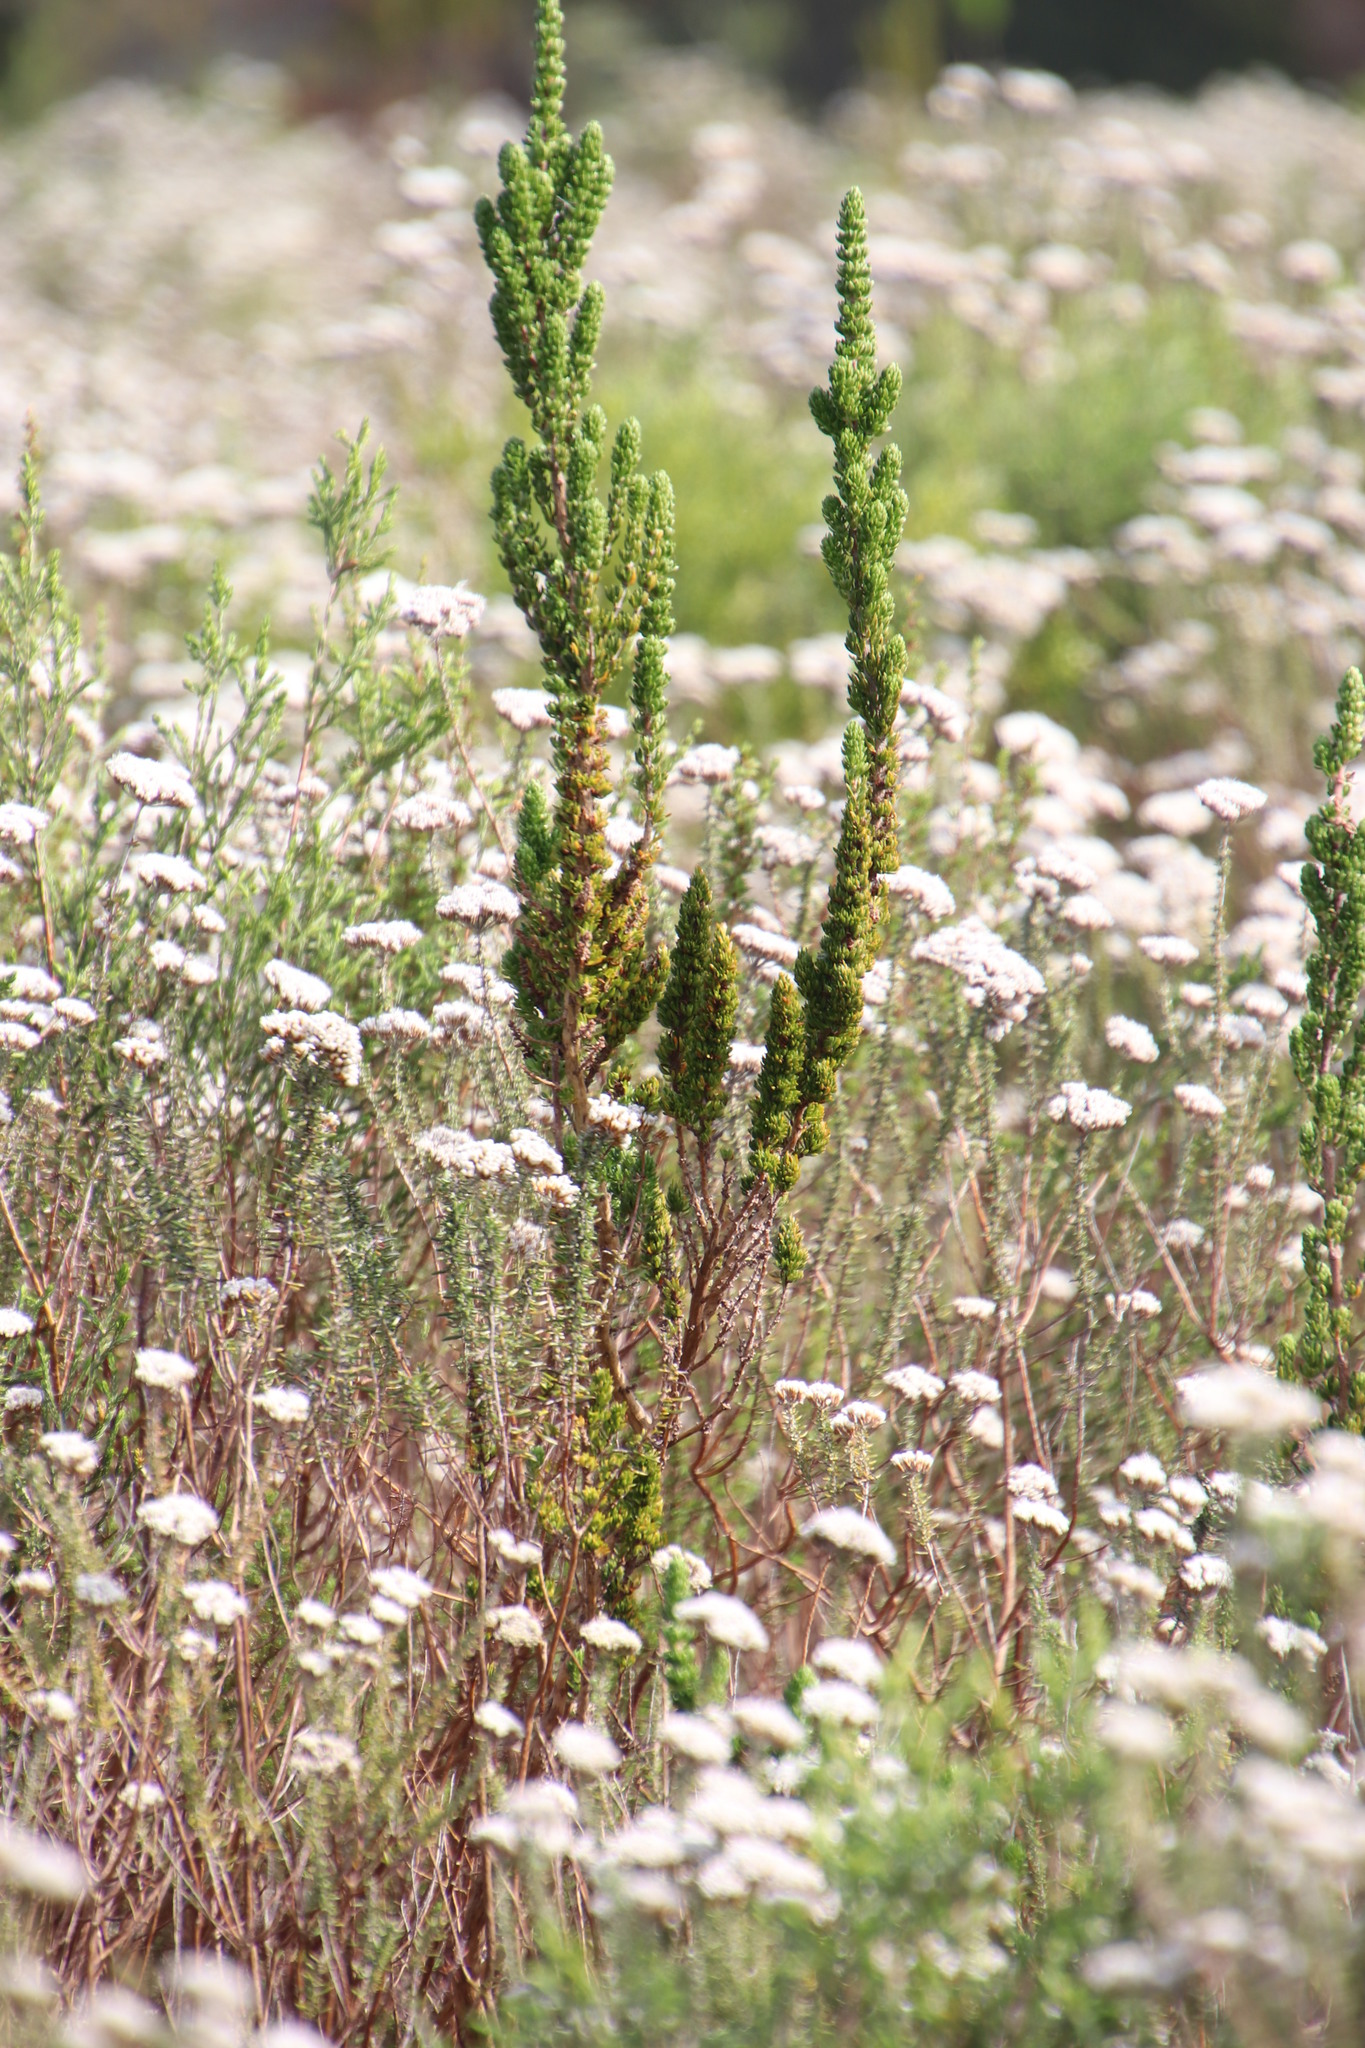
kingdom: Plantae
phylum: Tracheophyta
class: Magnoliopsida
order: Gentianales
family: Rubiaceae
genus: Anthospermum
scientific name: Anthospermum aethiopicum
